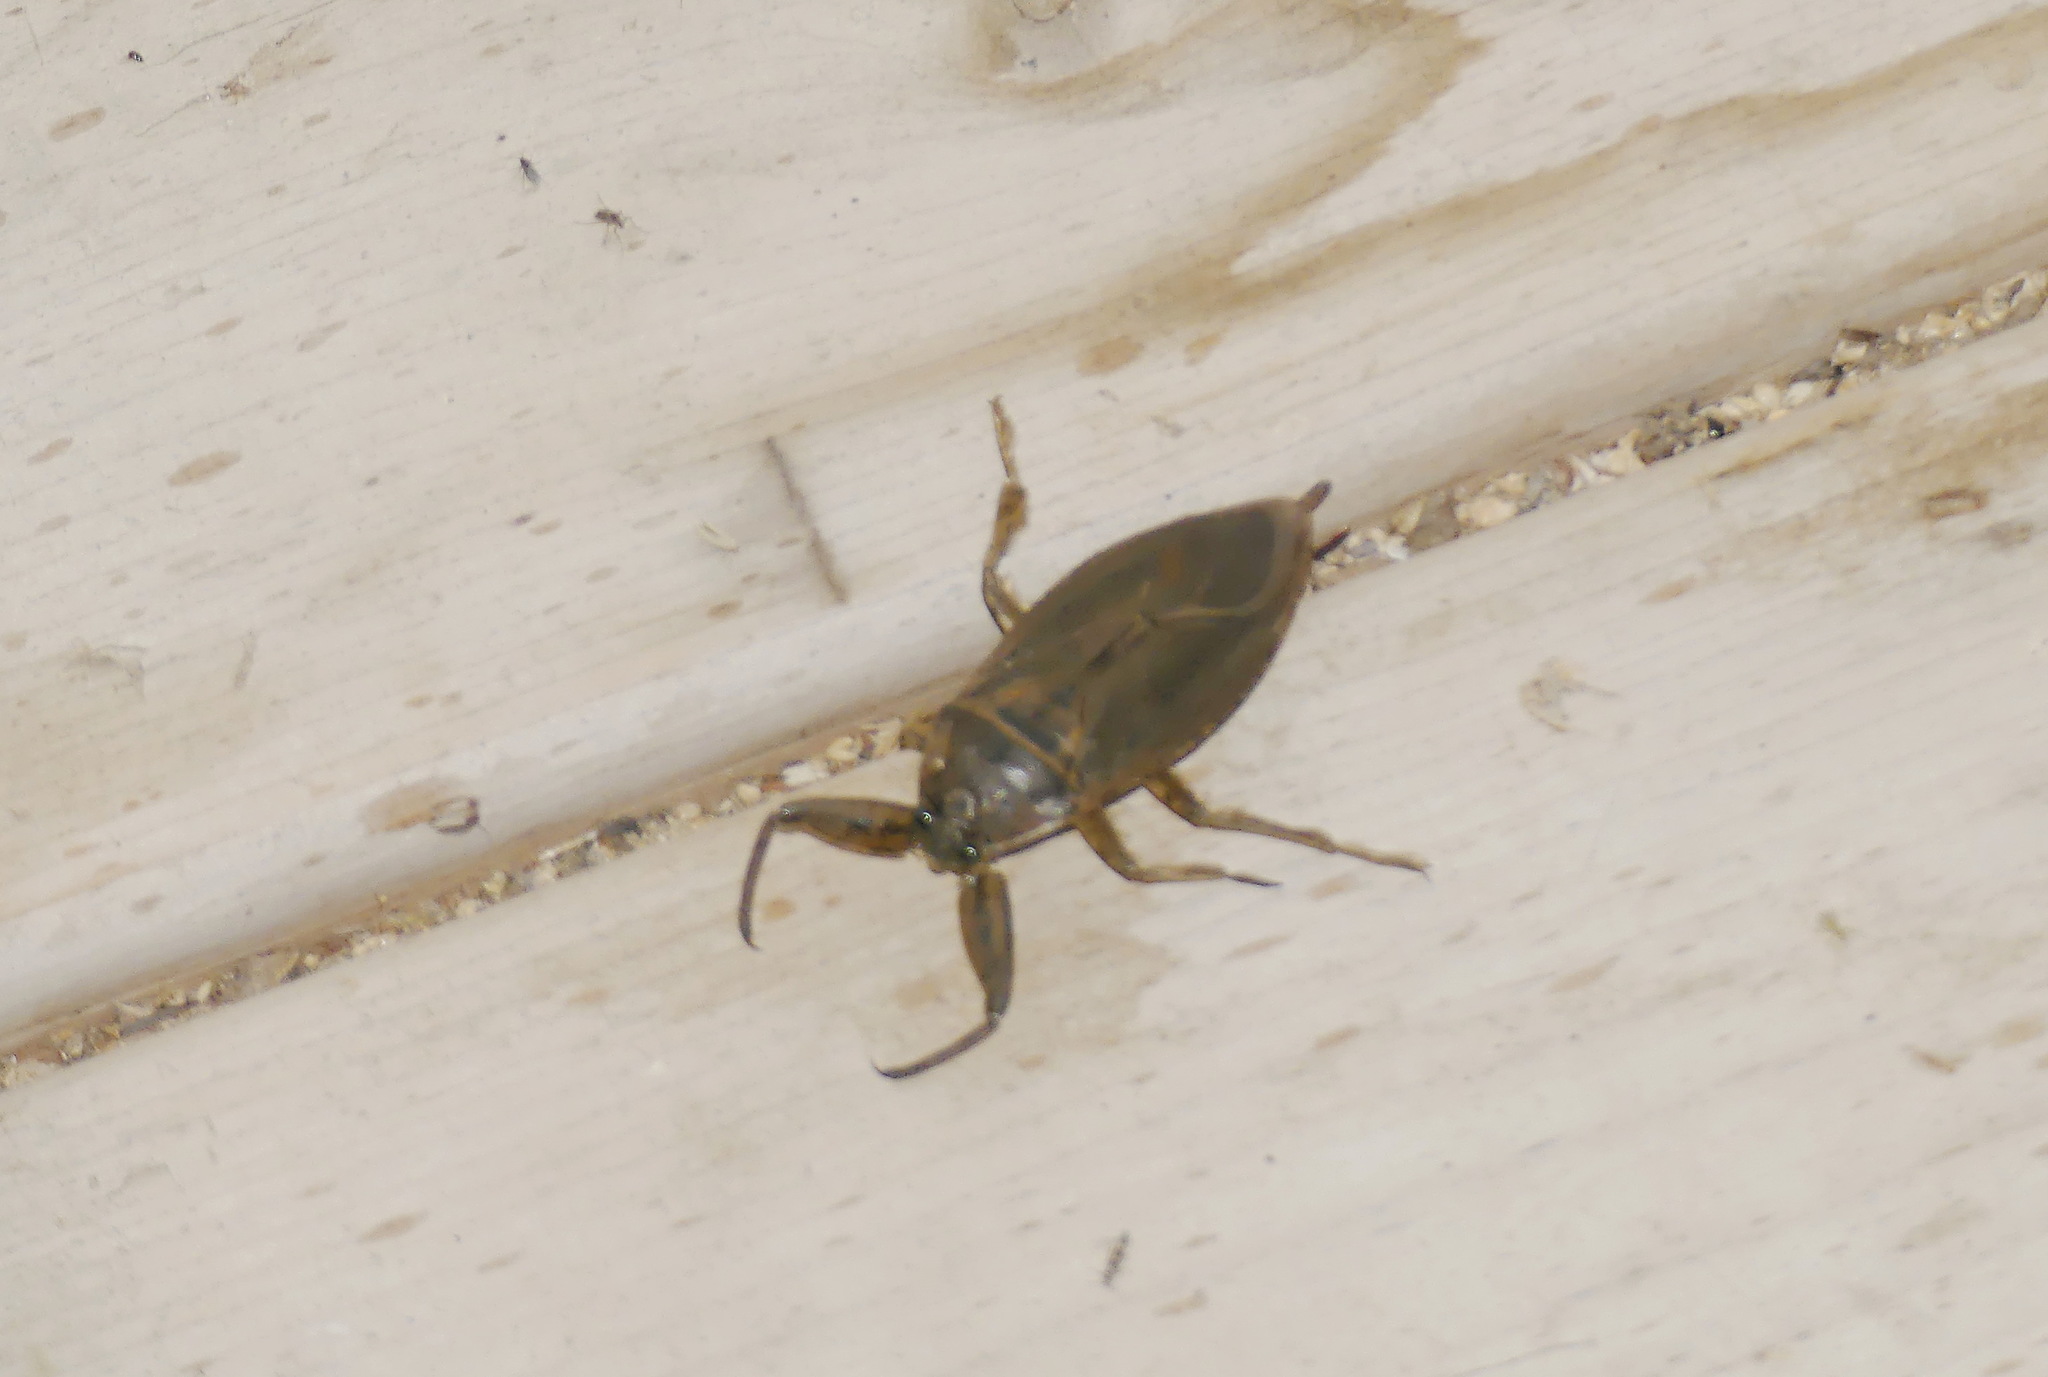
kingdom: Animalia
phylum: Arthropoda
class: Insecta
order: Hemiptera
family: Belostomatidae
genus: Lethocerus
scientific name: Lethocerus americanus
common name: Giant water bug
